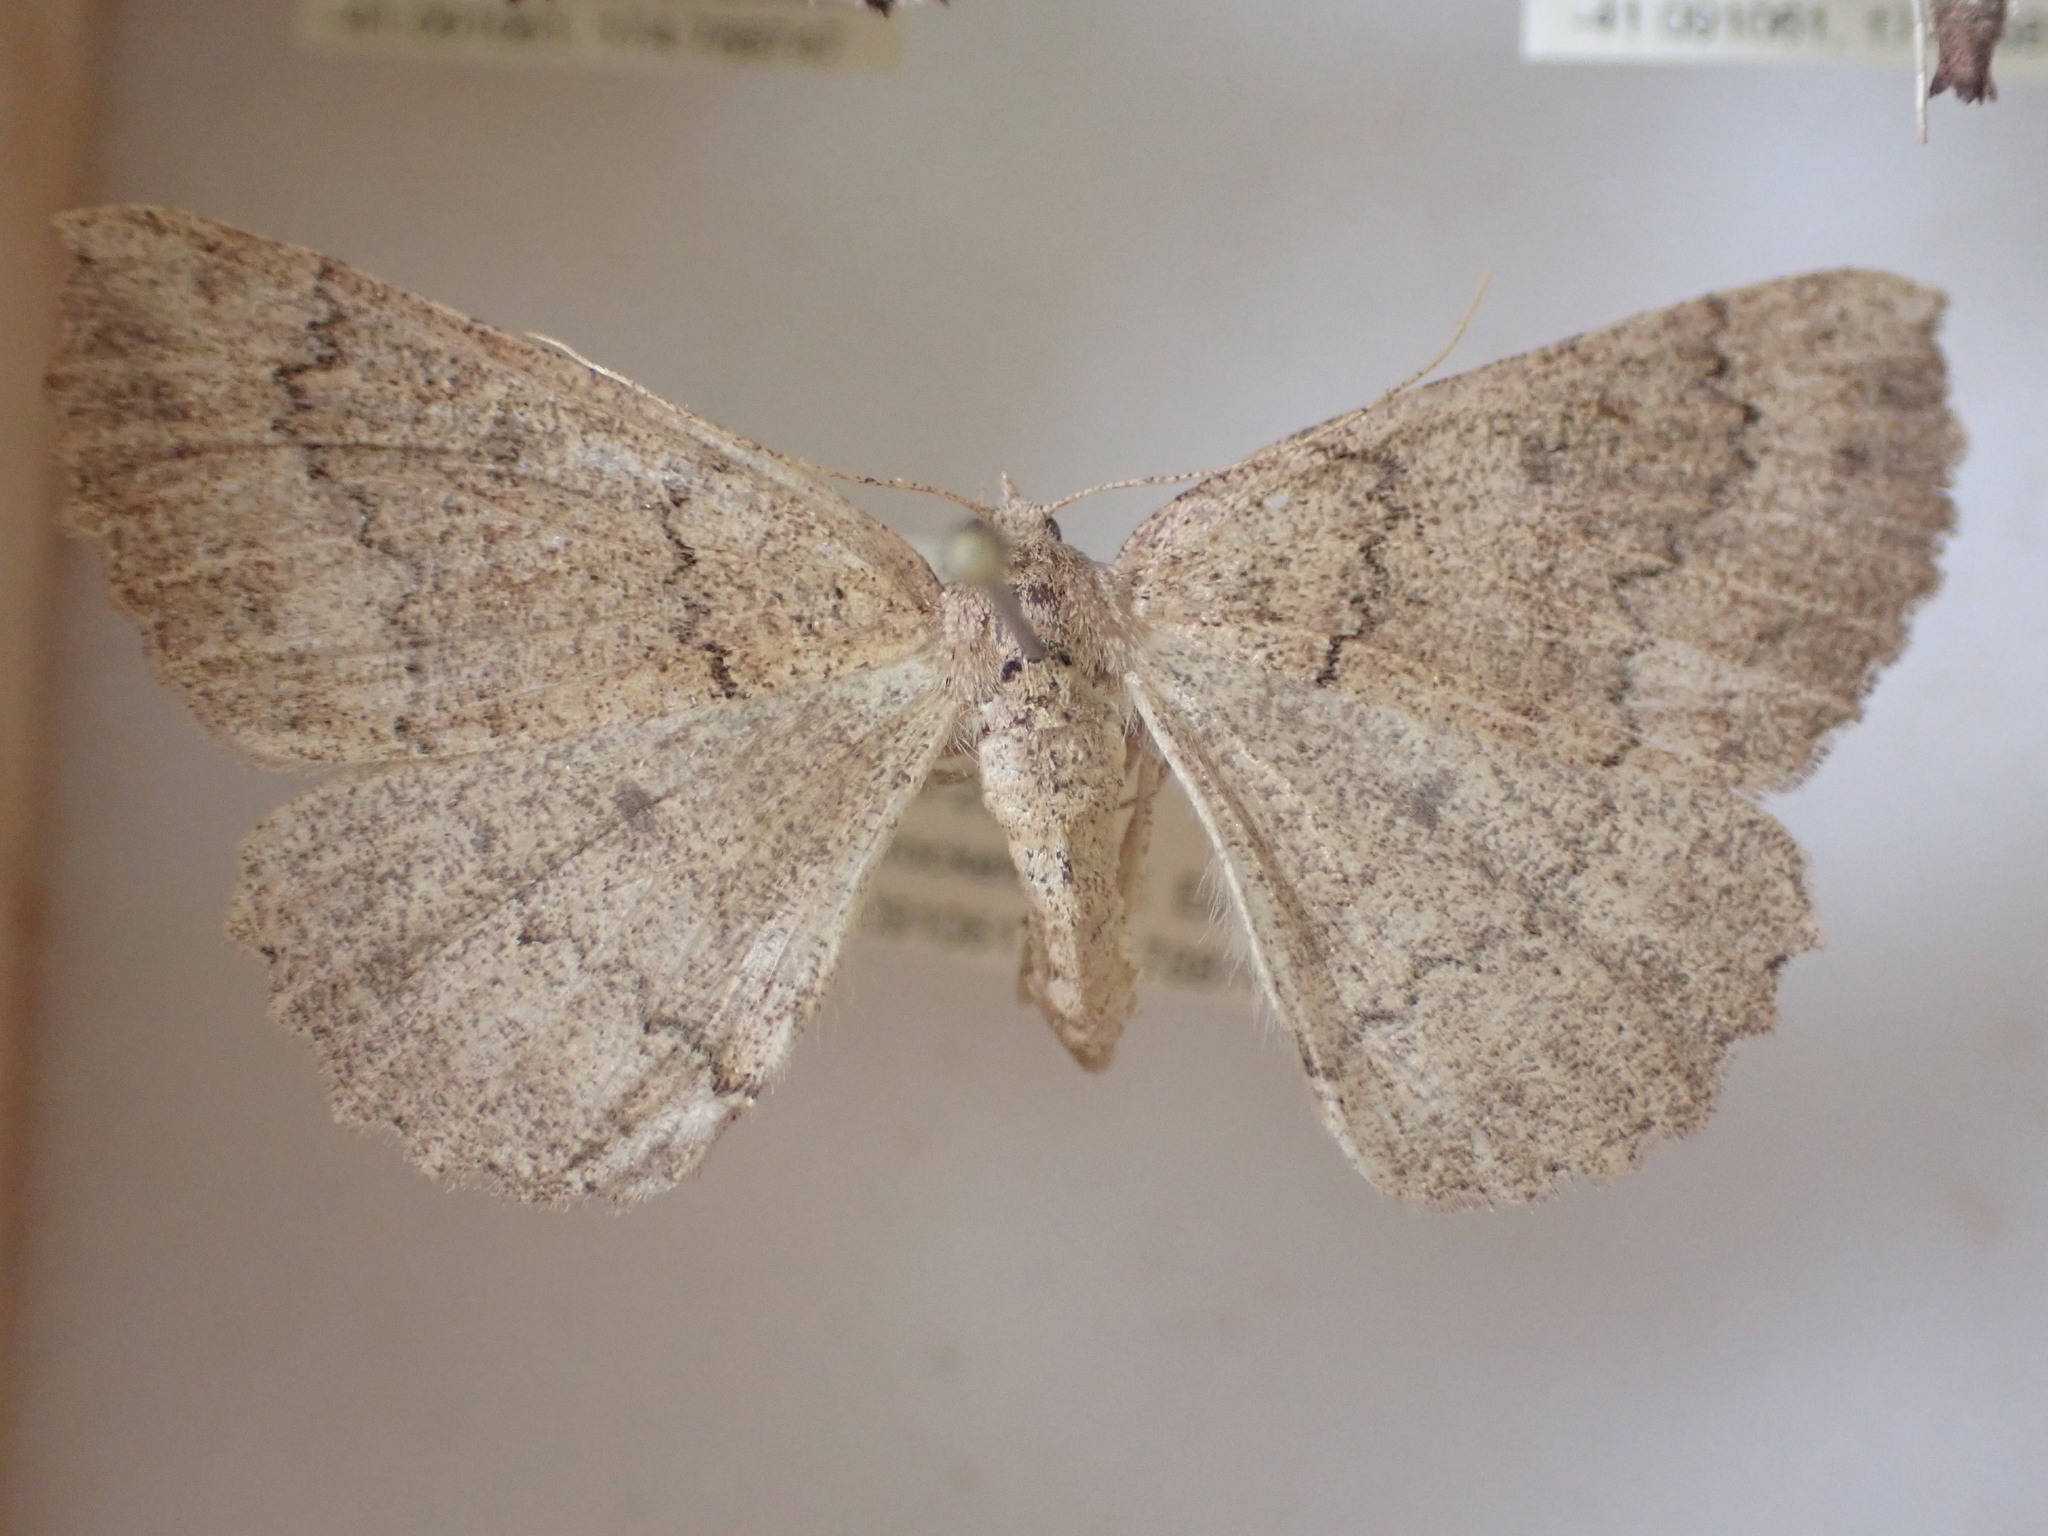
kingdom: Animalia
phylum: Arthropoda
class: Insecta
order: Lepidoptera
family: Geometridae
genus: Cleora
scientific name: Cleora scriptaria
